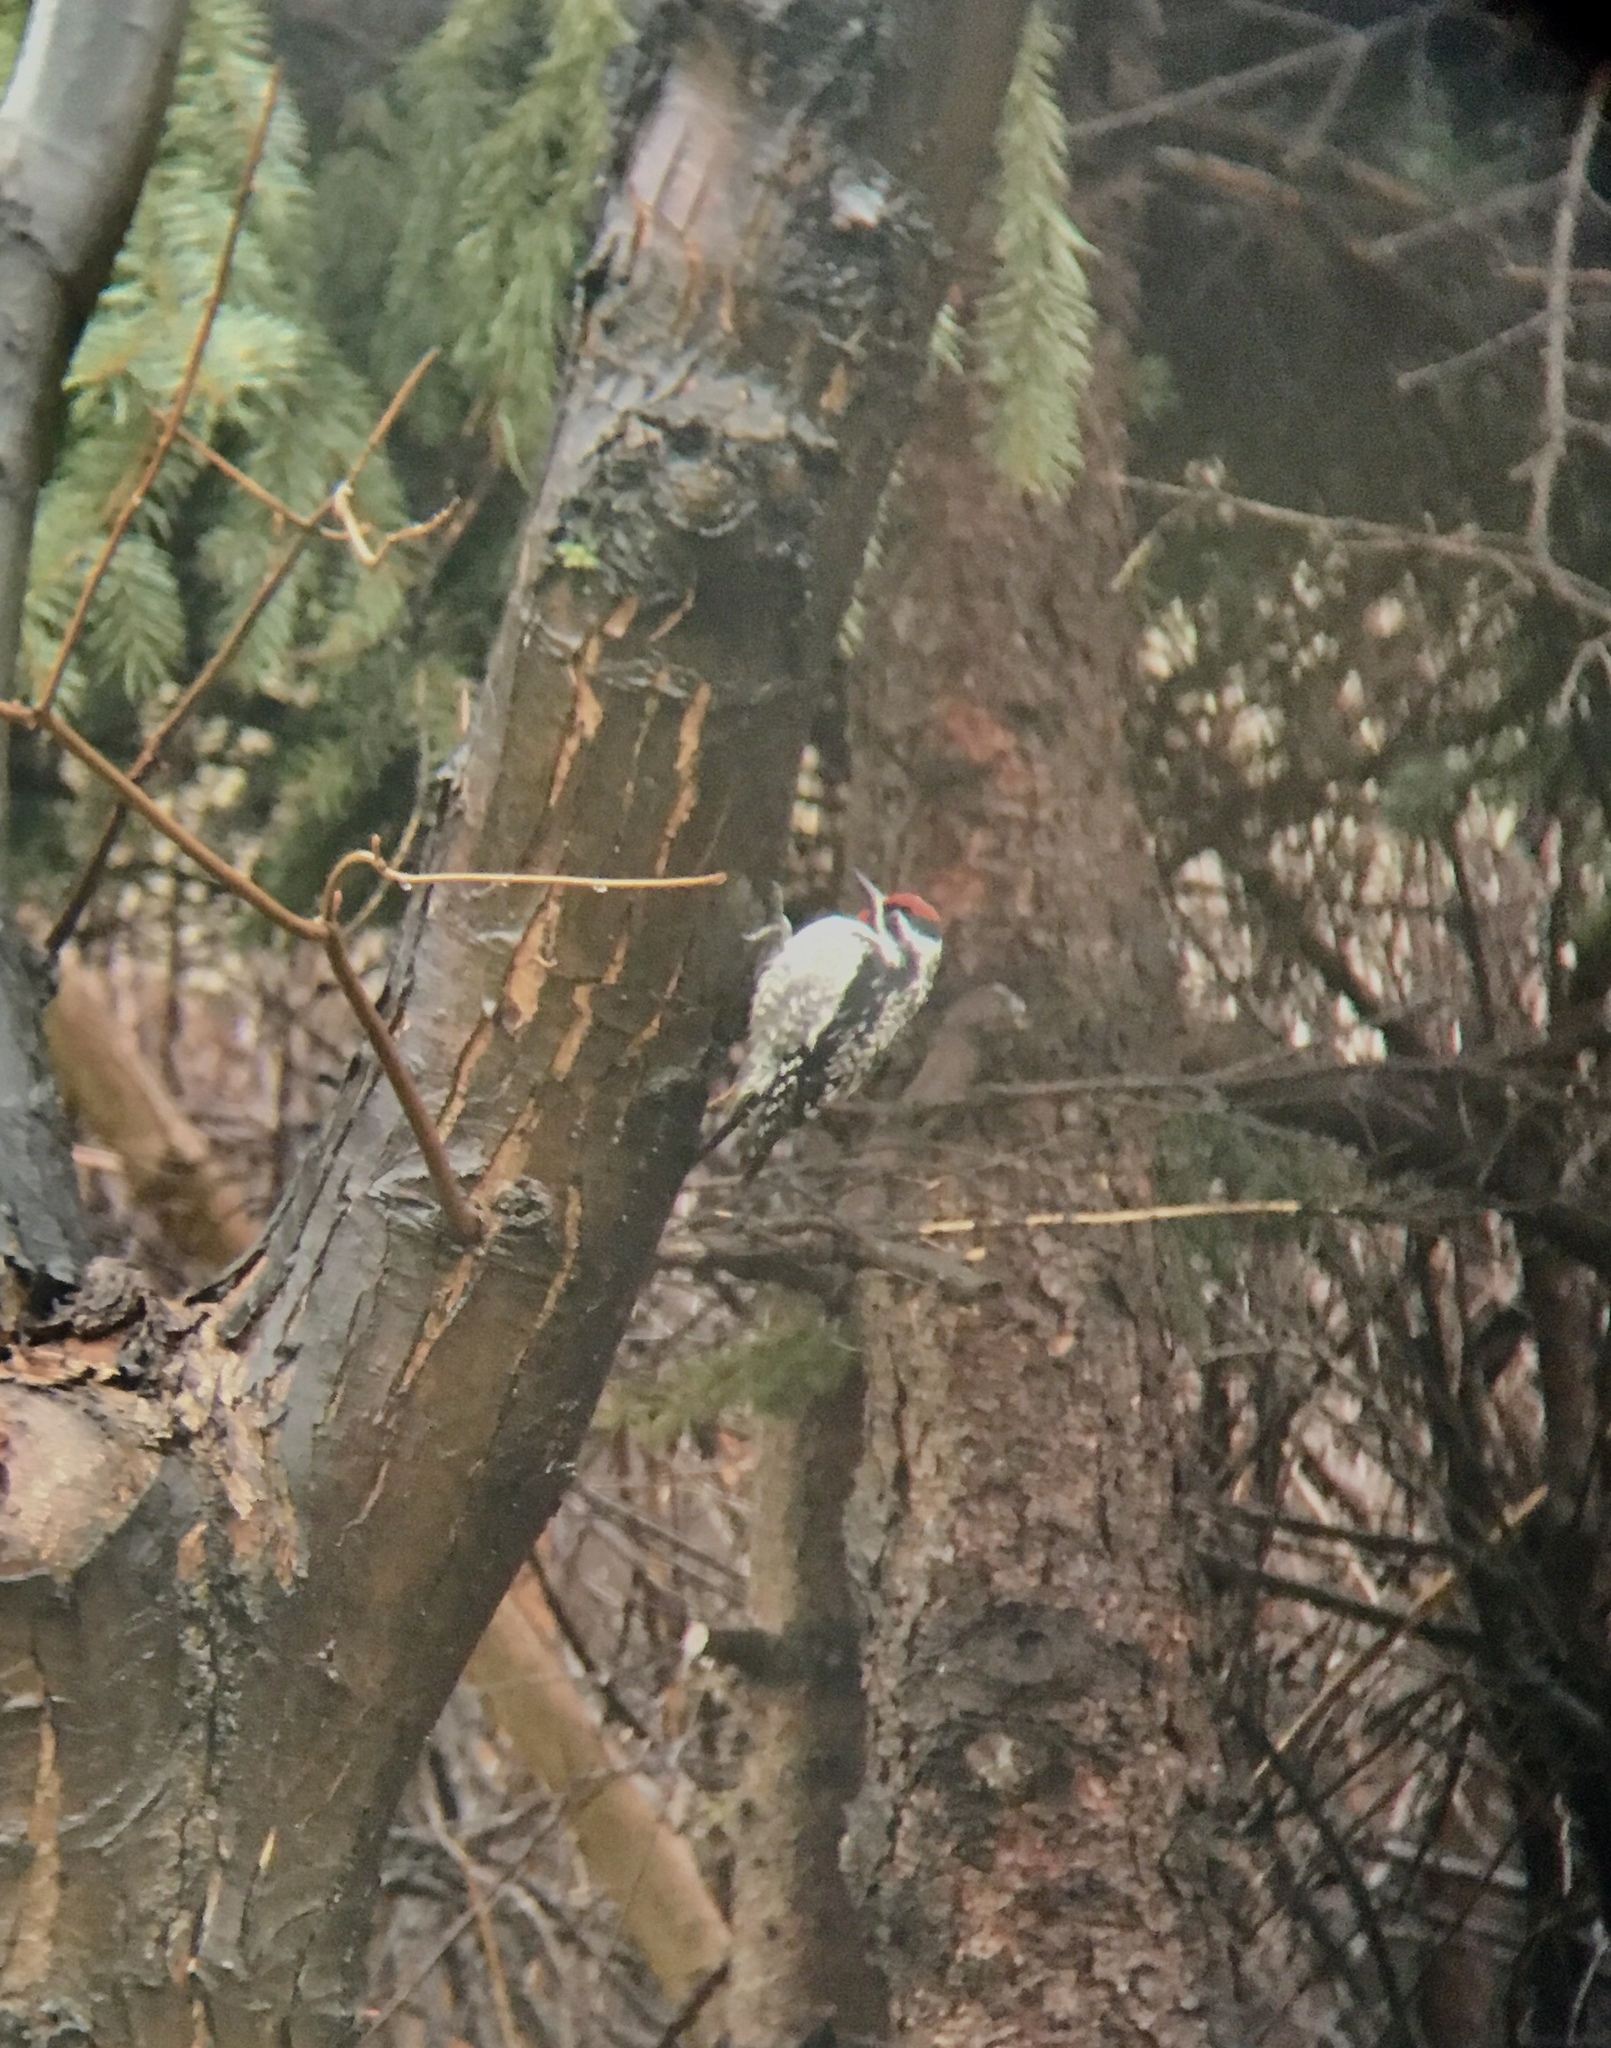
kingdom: Animalia
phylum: Chordata
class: Aves
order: Piciformes
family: Picidae
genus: Sphyrapicus
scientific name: Sphyrapicus varius
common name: Yellow-bellied sapsucker
